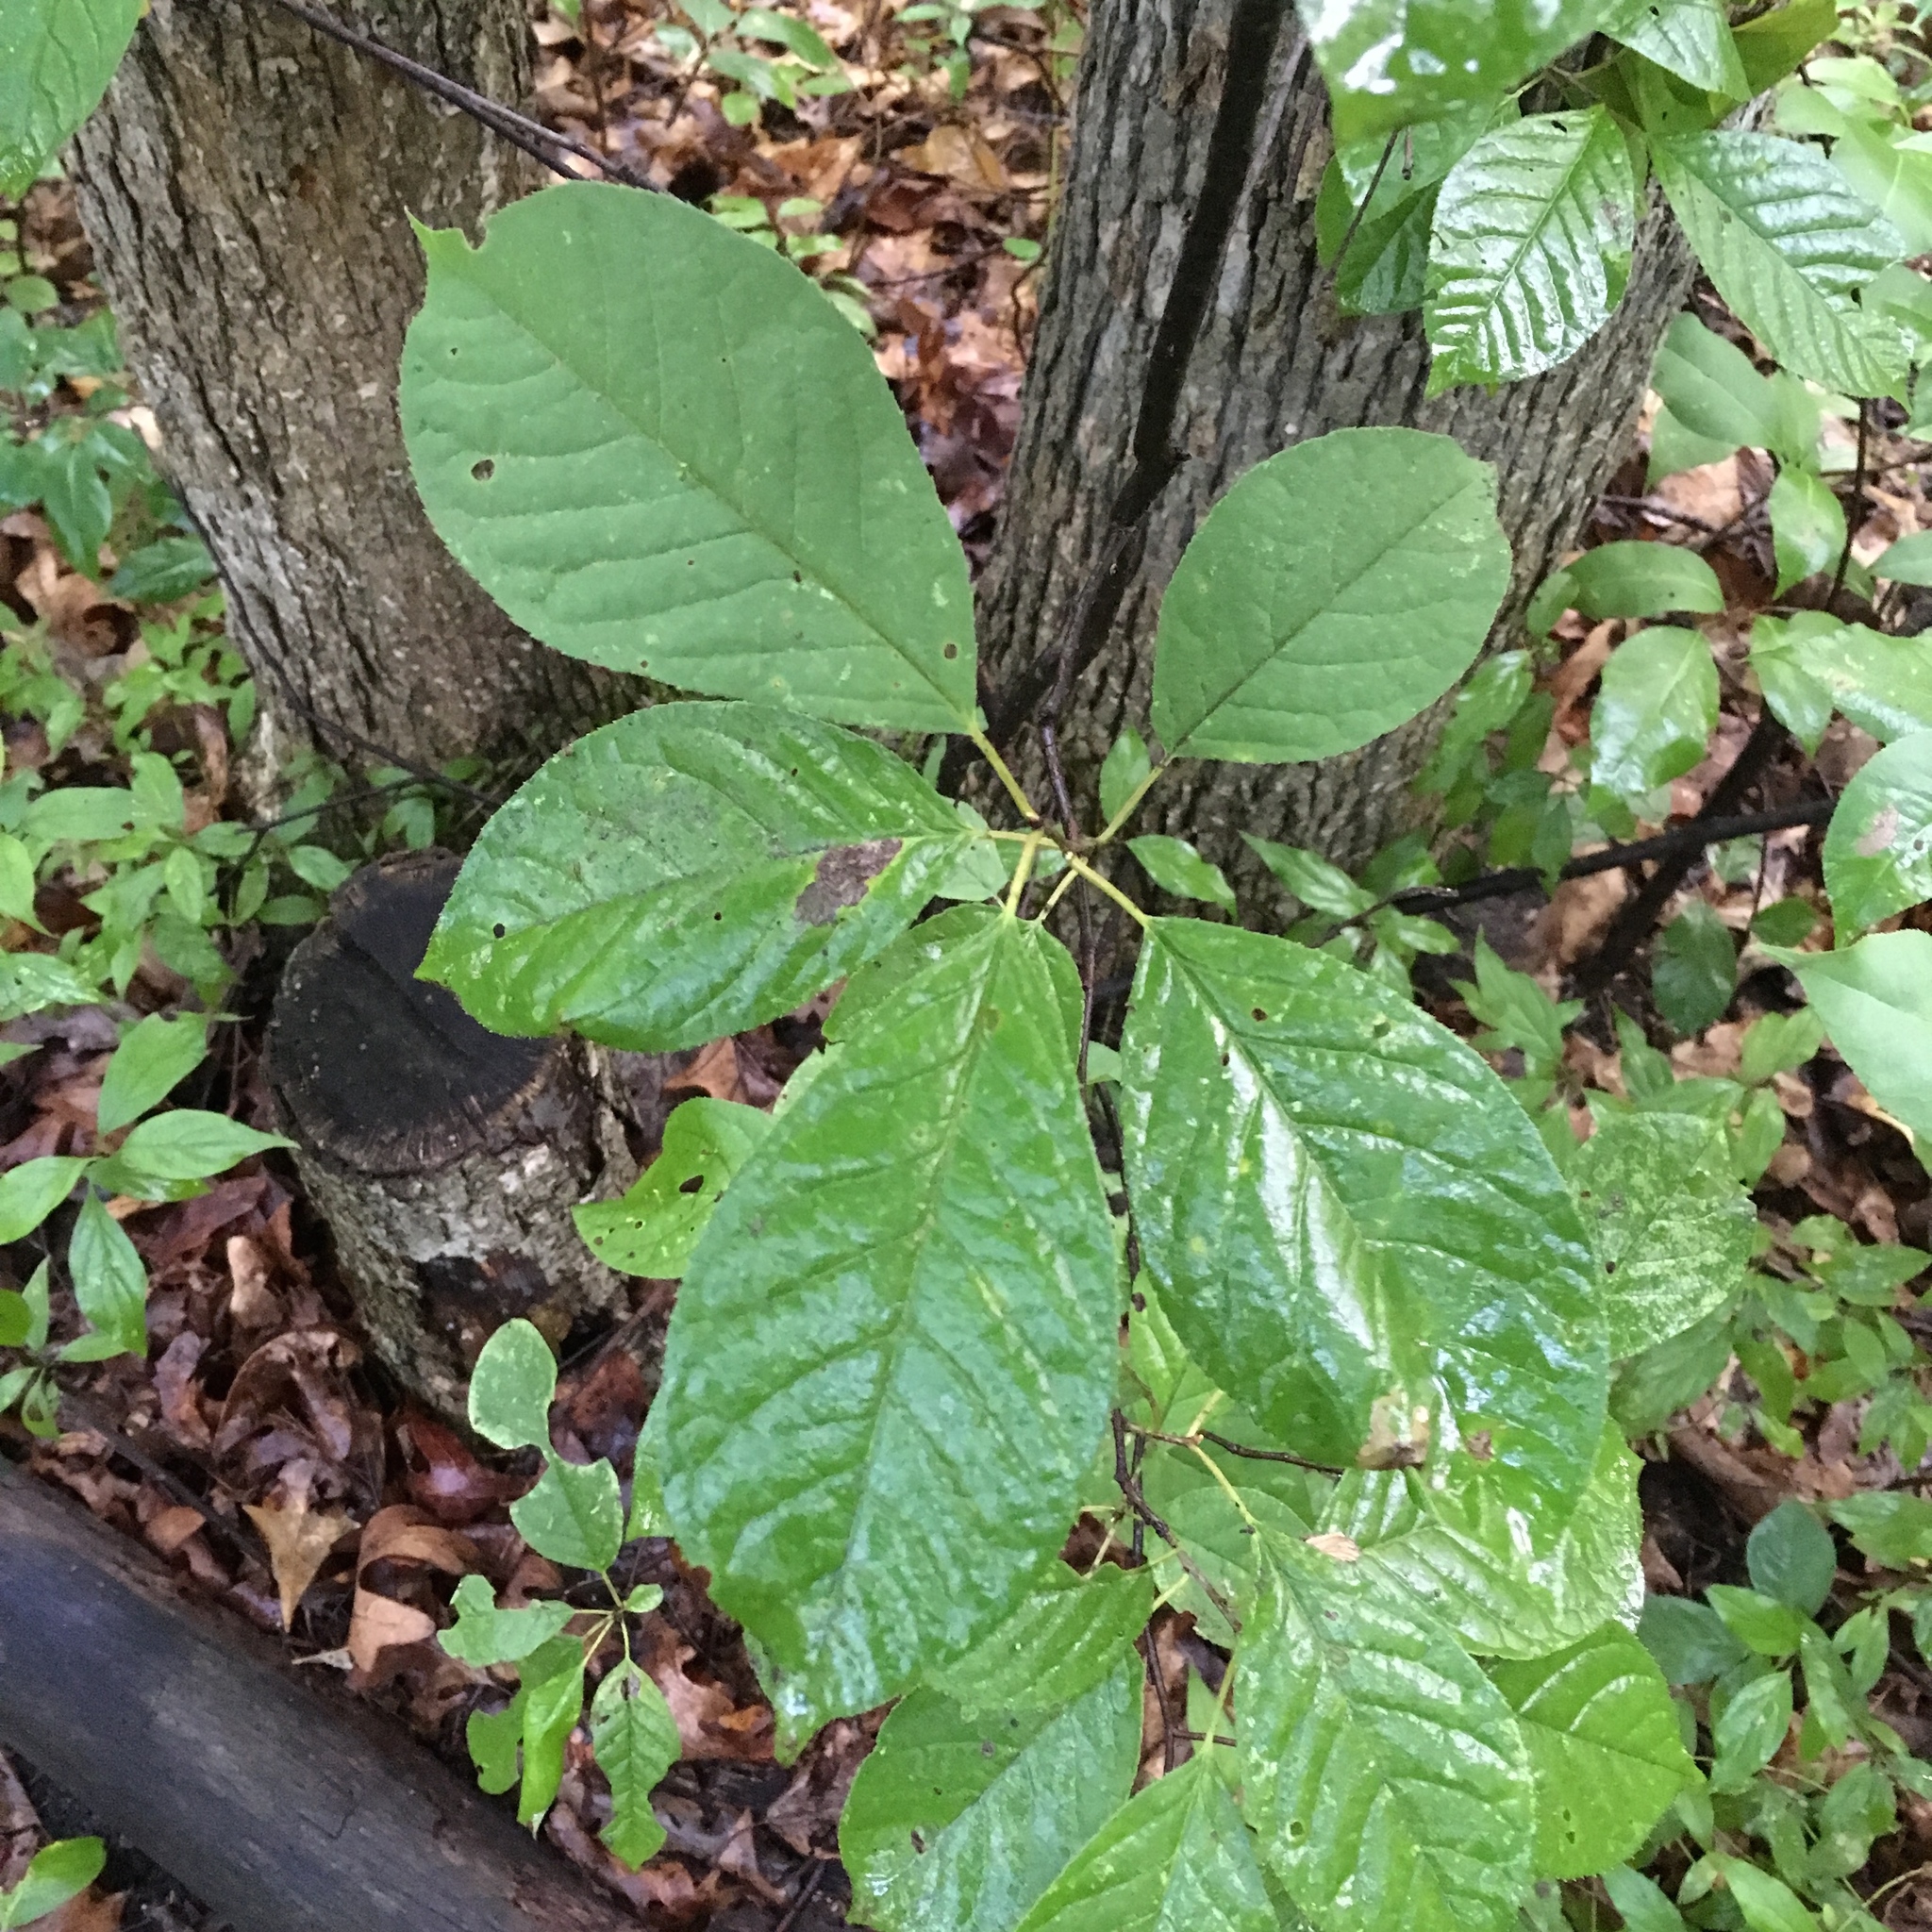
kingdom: Plantae
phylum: Tracheophyta
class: Magnoliopsida
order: Rosales
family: Rosaceae
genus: Prunus
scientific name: Prunus virginiana
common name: Chokecherry
